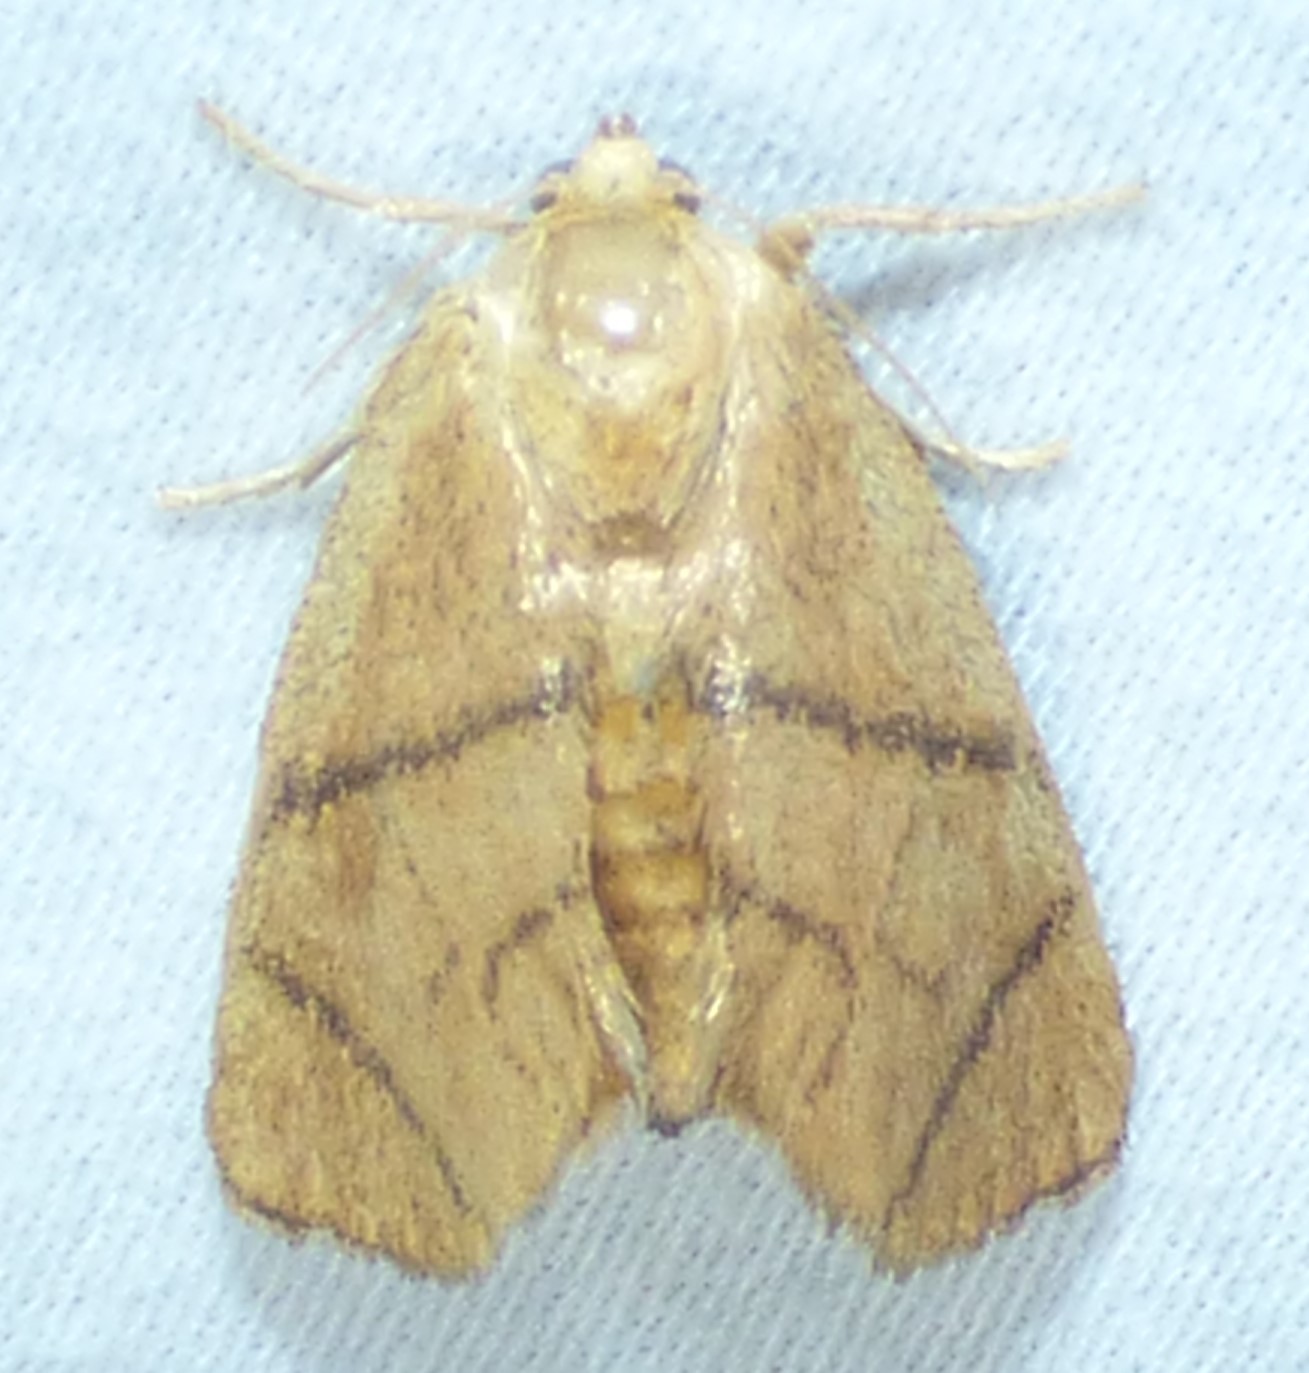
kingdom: Animalia
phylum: Arthropoda
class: Insecta
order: Lepidoptera
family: Limacodidae
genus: Apoda
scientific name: Apoda y-inversa
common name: Yellow-collared slug moth
